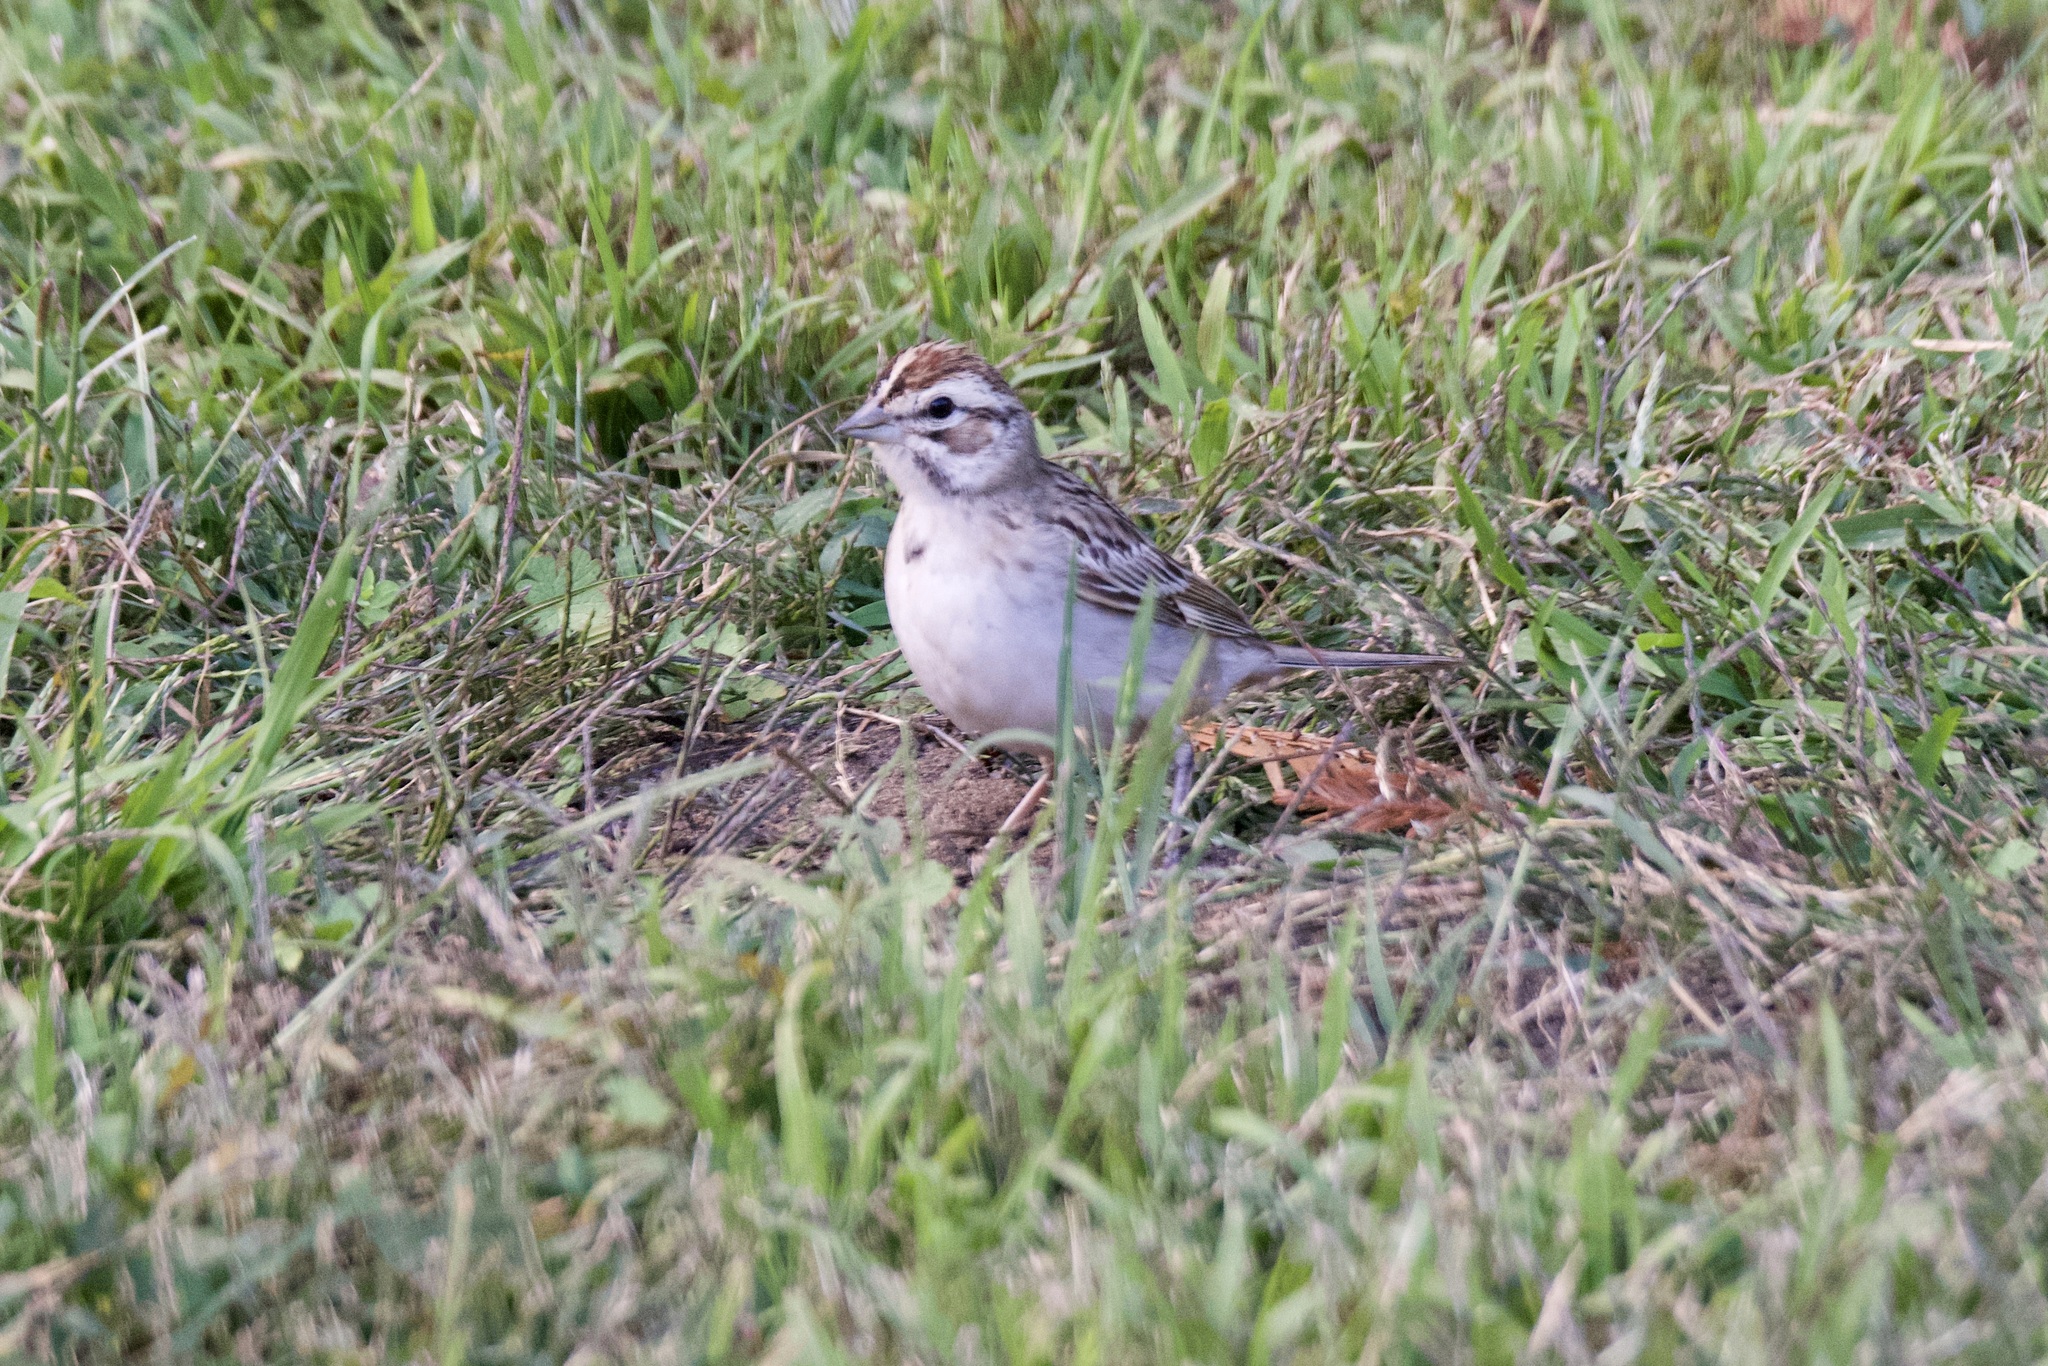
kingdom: Animalia
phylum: Chordata
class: Aves
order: Passeriformes
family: Passerellidae
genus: Chondestes
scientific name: Chondestes grammacus
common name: Lark sparrow
